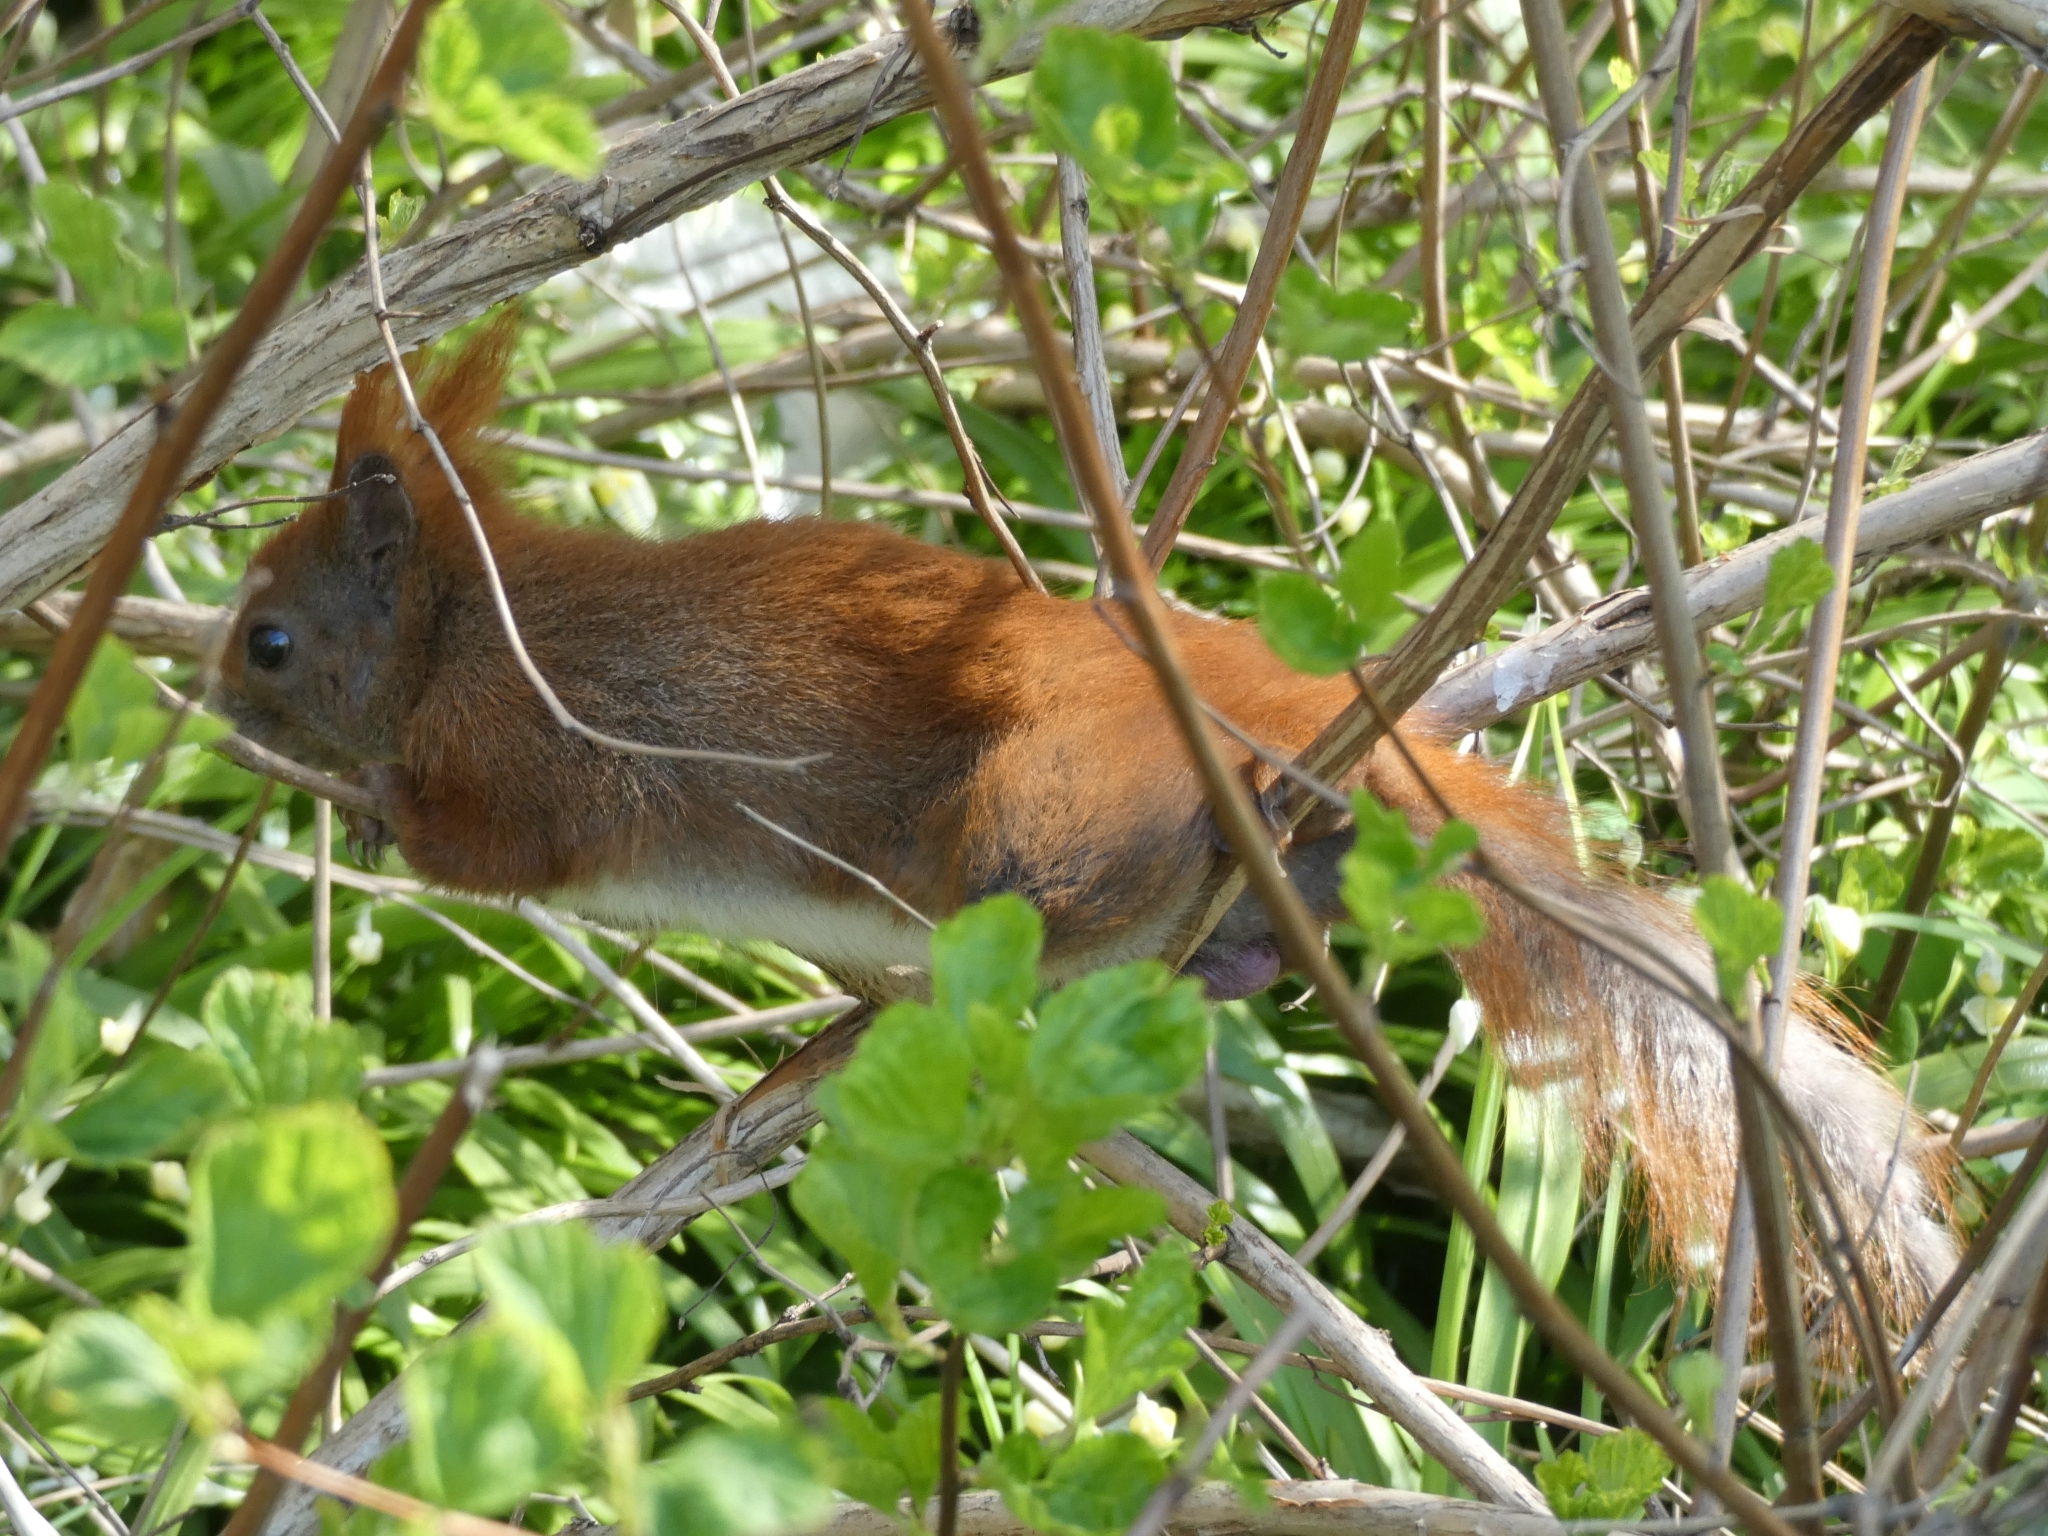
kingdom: Animalia
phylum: Chordata
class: Mammalia
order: Rodentia
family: Sciuridae
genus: Sciurus
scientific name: Sciurus vulgaris
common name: Eurasian red squirrel
